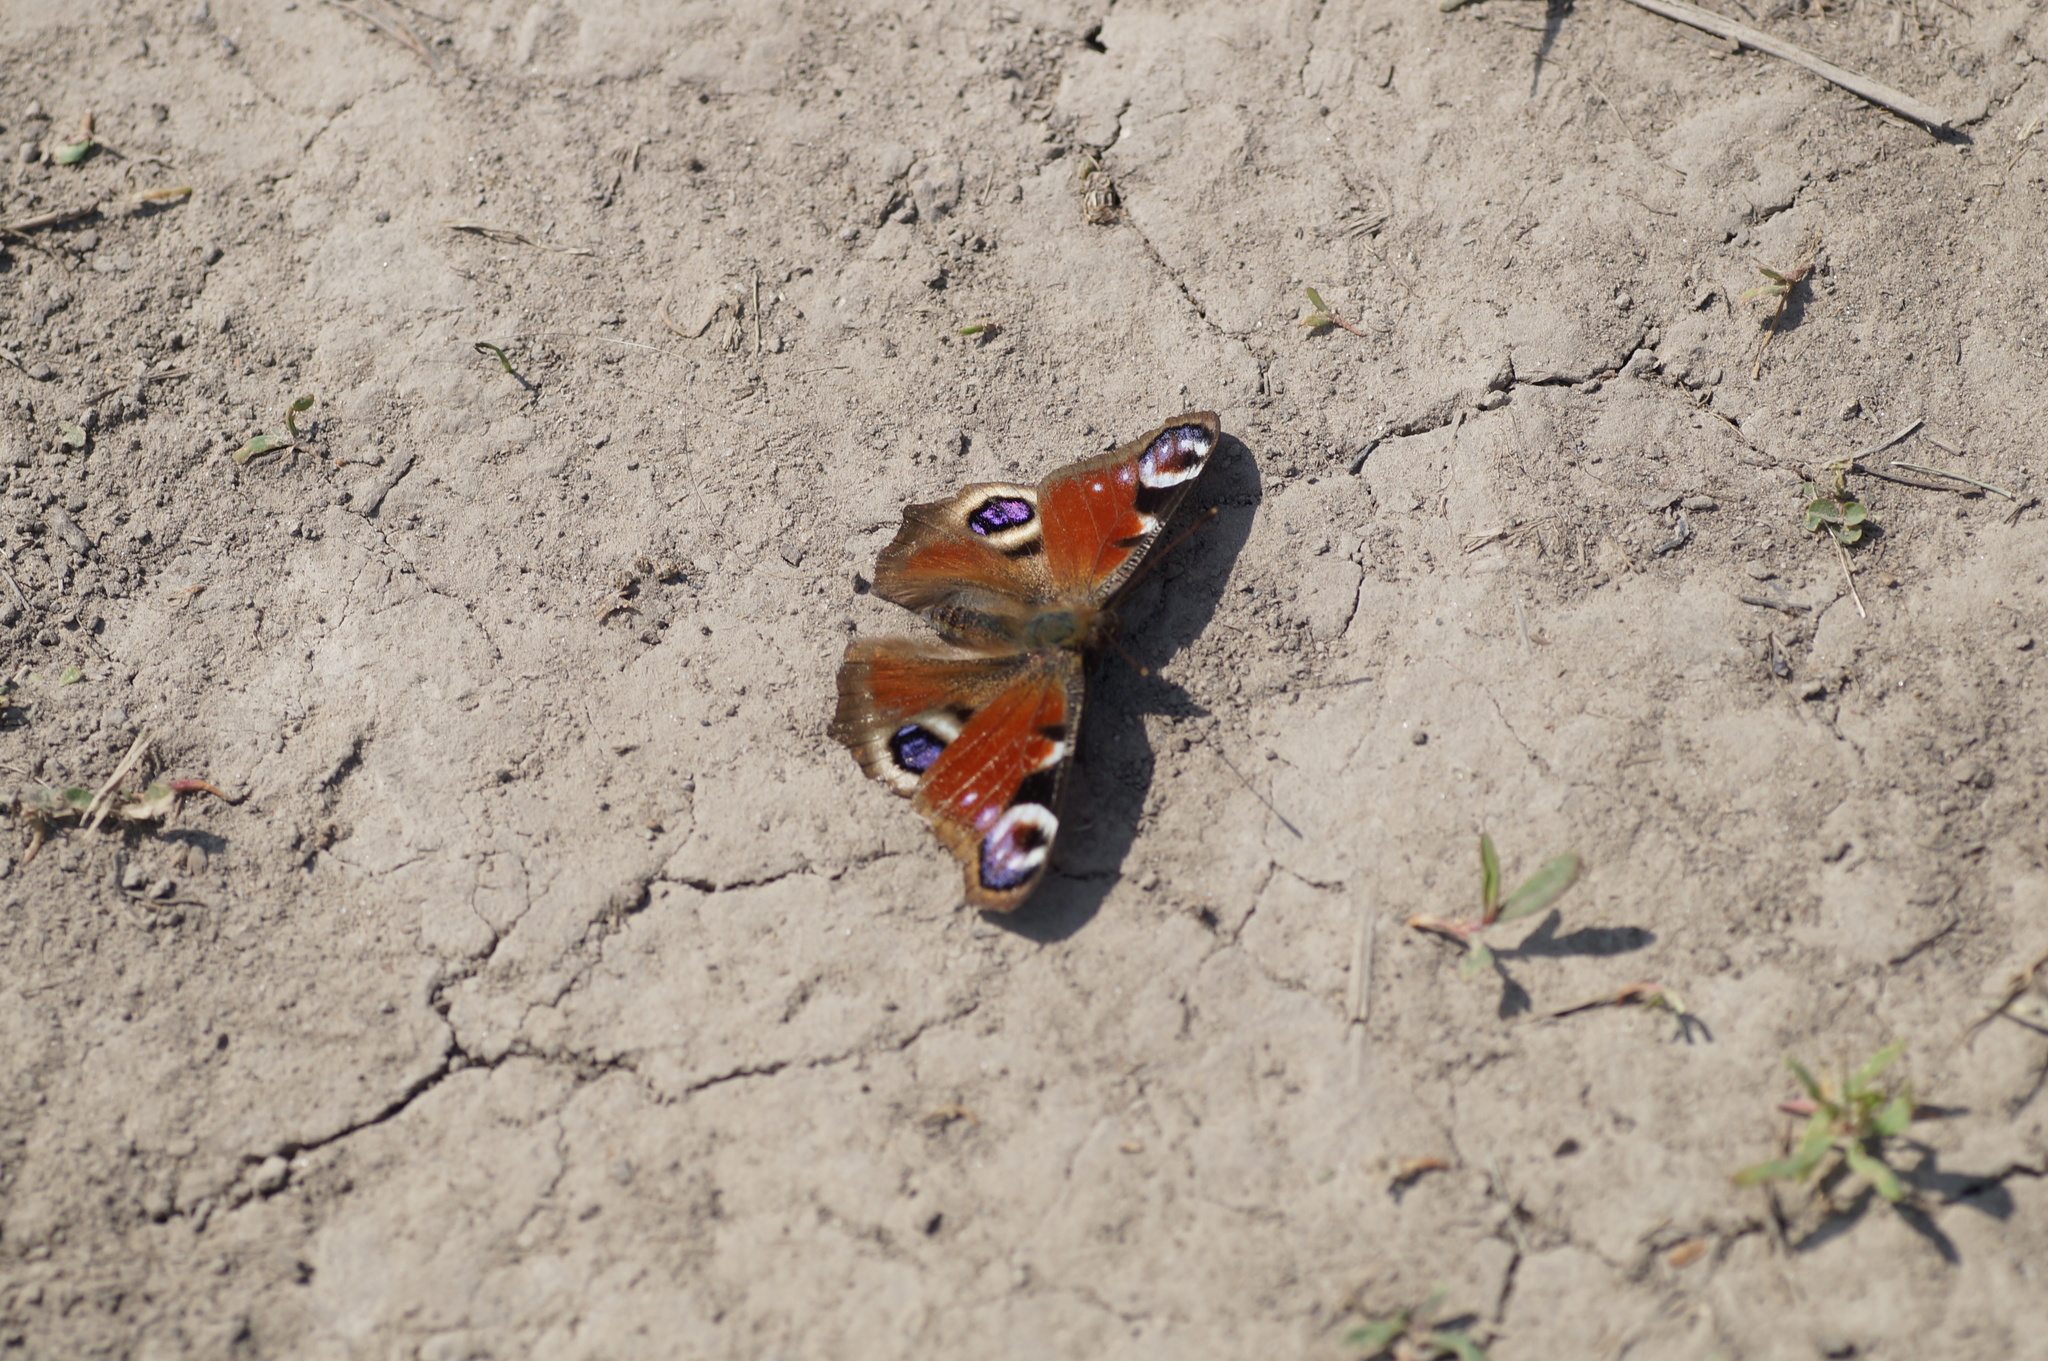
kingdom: Animalia
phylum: Arthropoda
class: Insecta
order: Lepidoptera
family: Nymphalidae
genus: Aglais
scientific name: Aglais io
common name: Peacock
